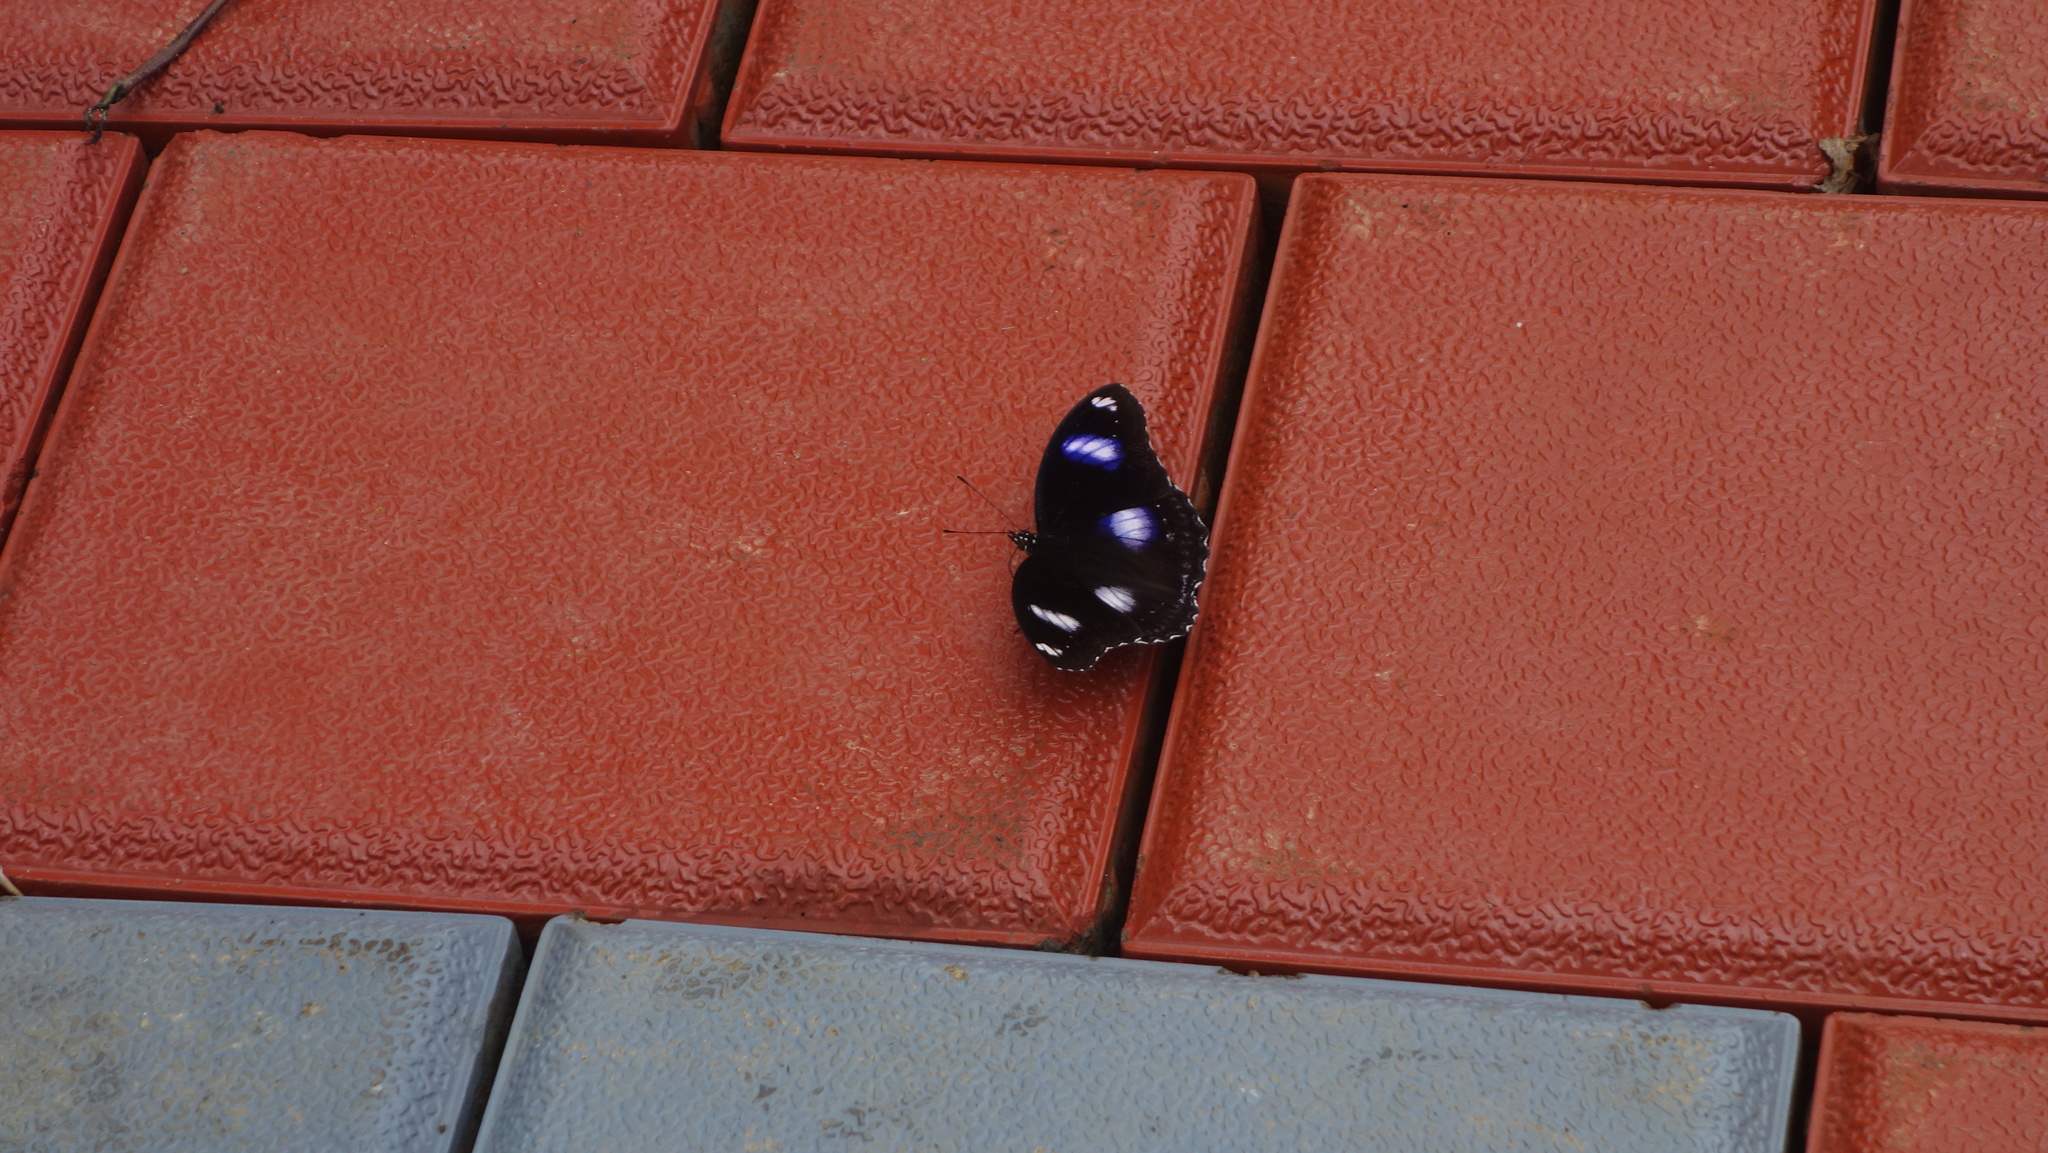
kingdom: Animalia
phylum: Arthropoda
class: Insecta
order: Lepidoptera
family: Nymphalidae
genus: Hypolimnas
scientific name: Hypolimnas bolina
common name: Great eggfly
